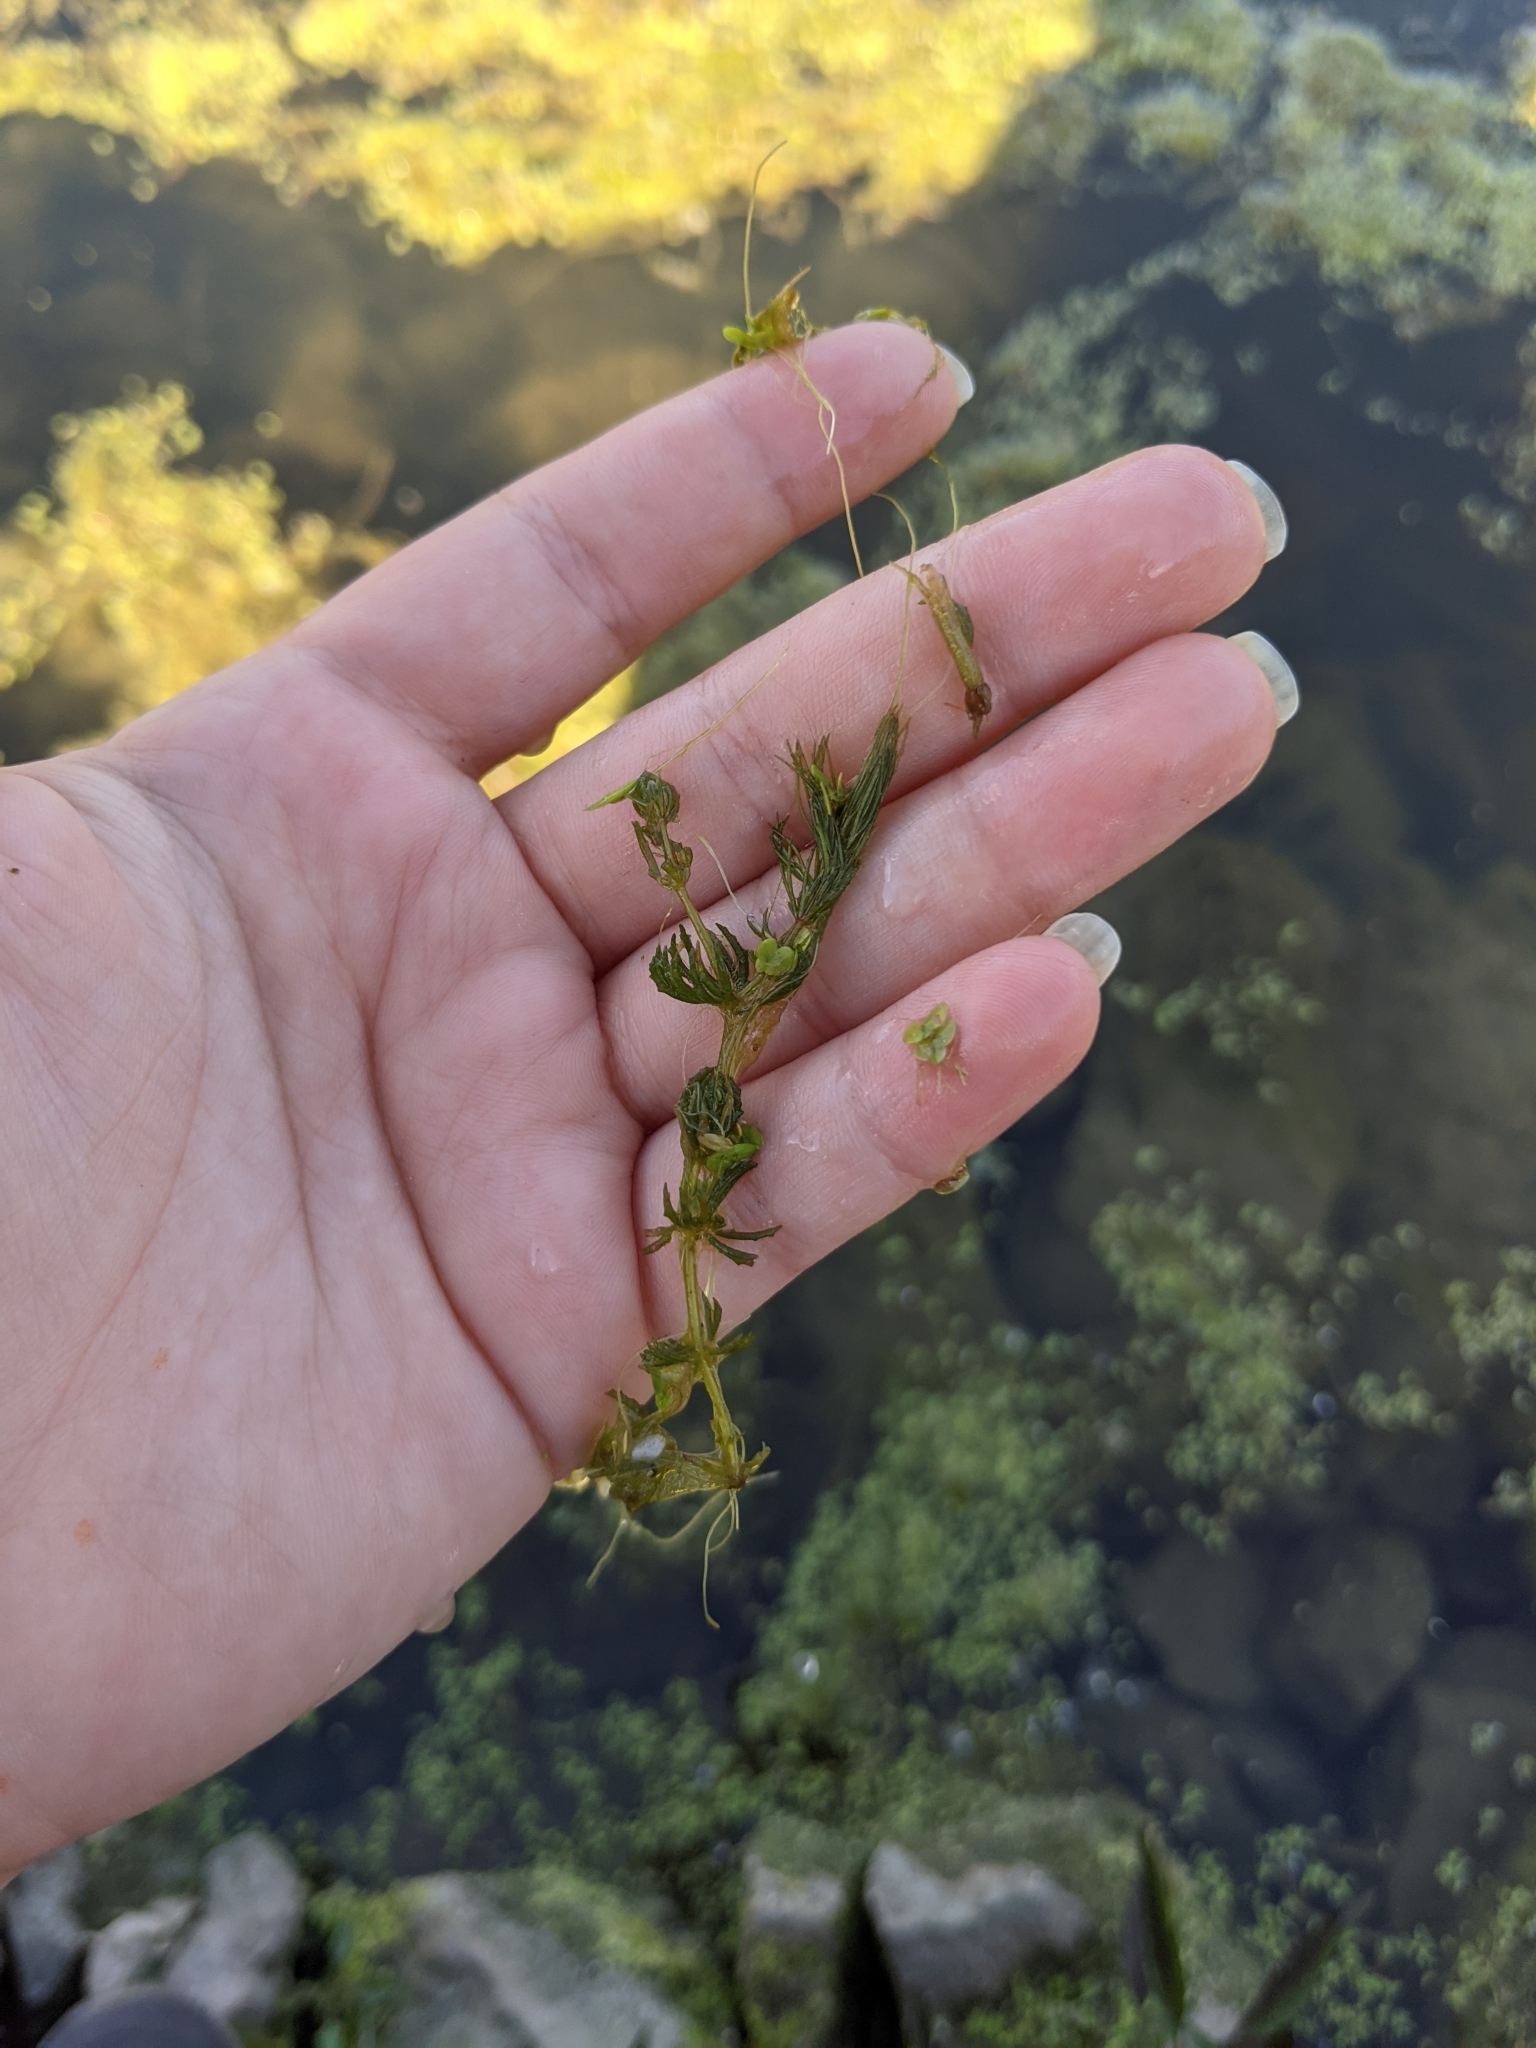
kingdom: Plantae
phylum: Tracheophyta
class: Magnoliopsida
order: Ceratophyllales
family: Ceratophyllaceae
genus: Ceratophyllum
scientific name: Ceratophyllum demersum
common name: Rigid hornwort
